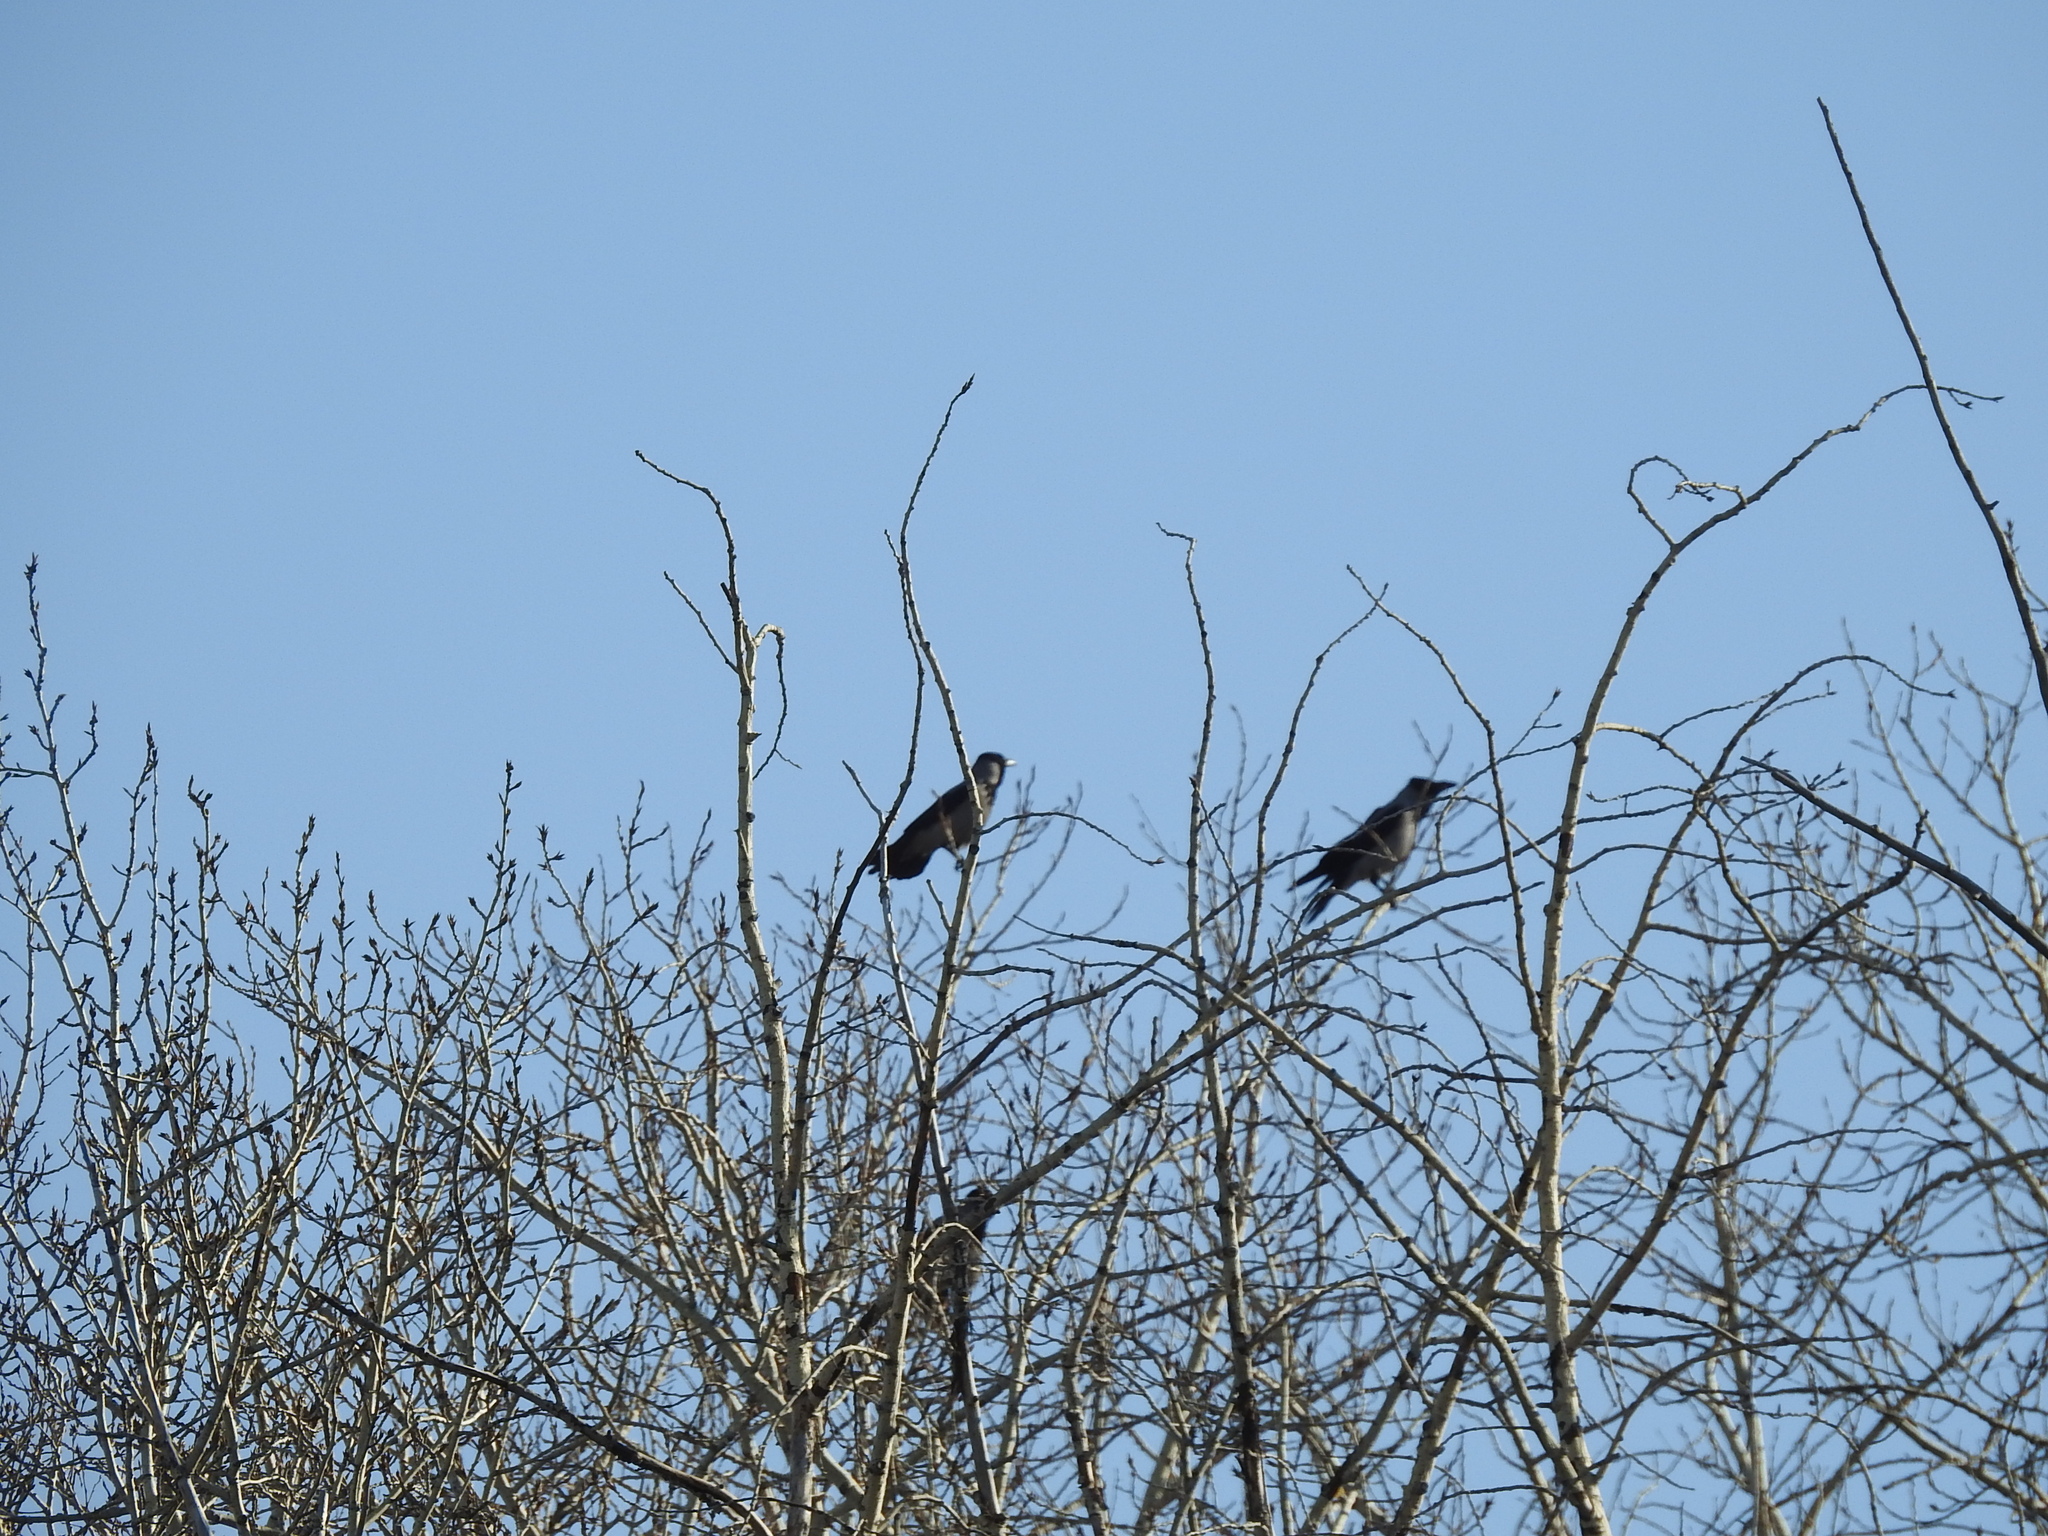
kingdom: Animalia
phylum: Chordata
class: Aves
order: Passeriformes
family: Corvidae
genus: Corvus
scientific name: Corvus cornix
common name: Hooded crow
